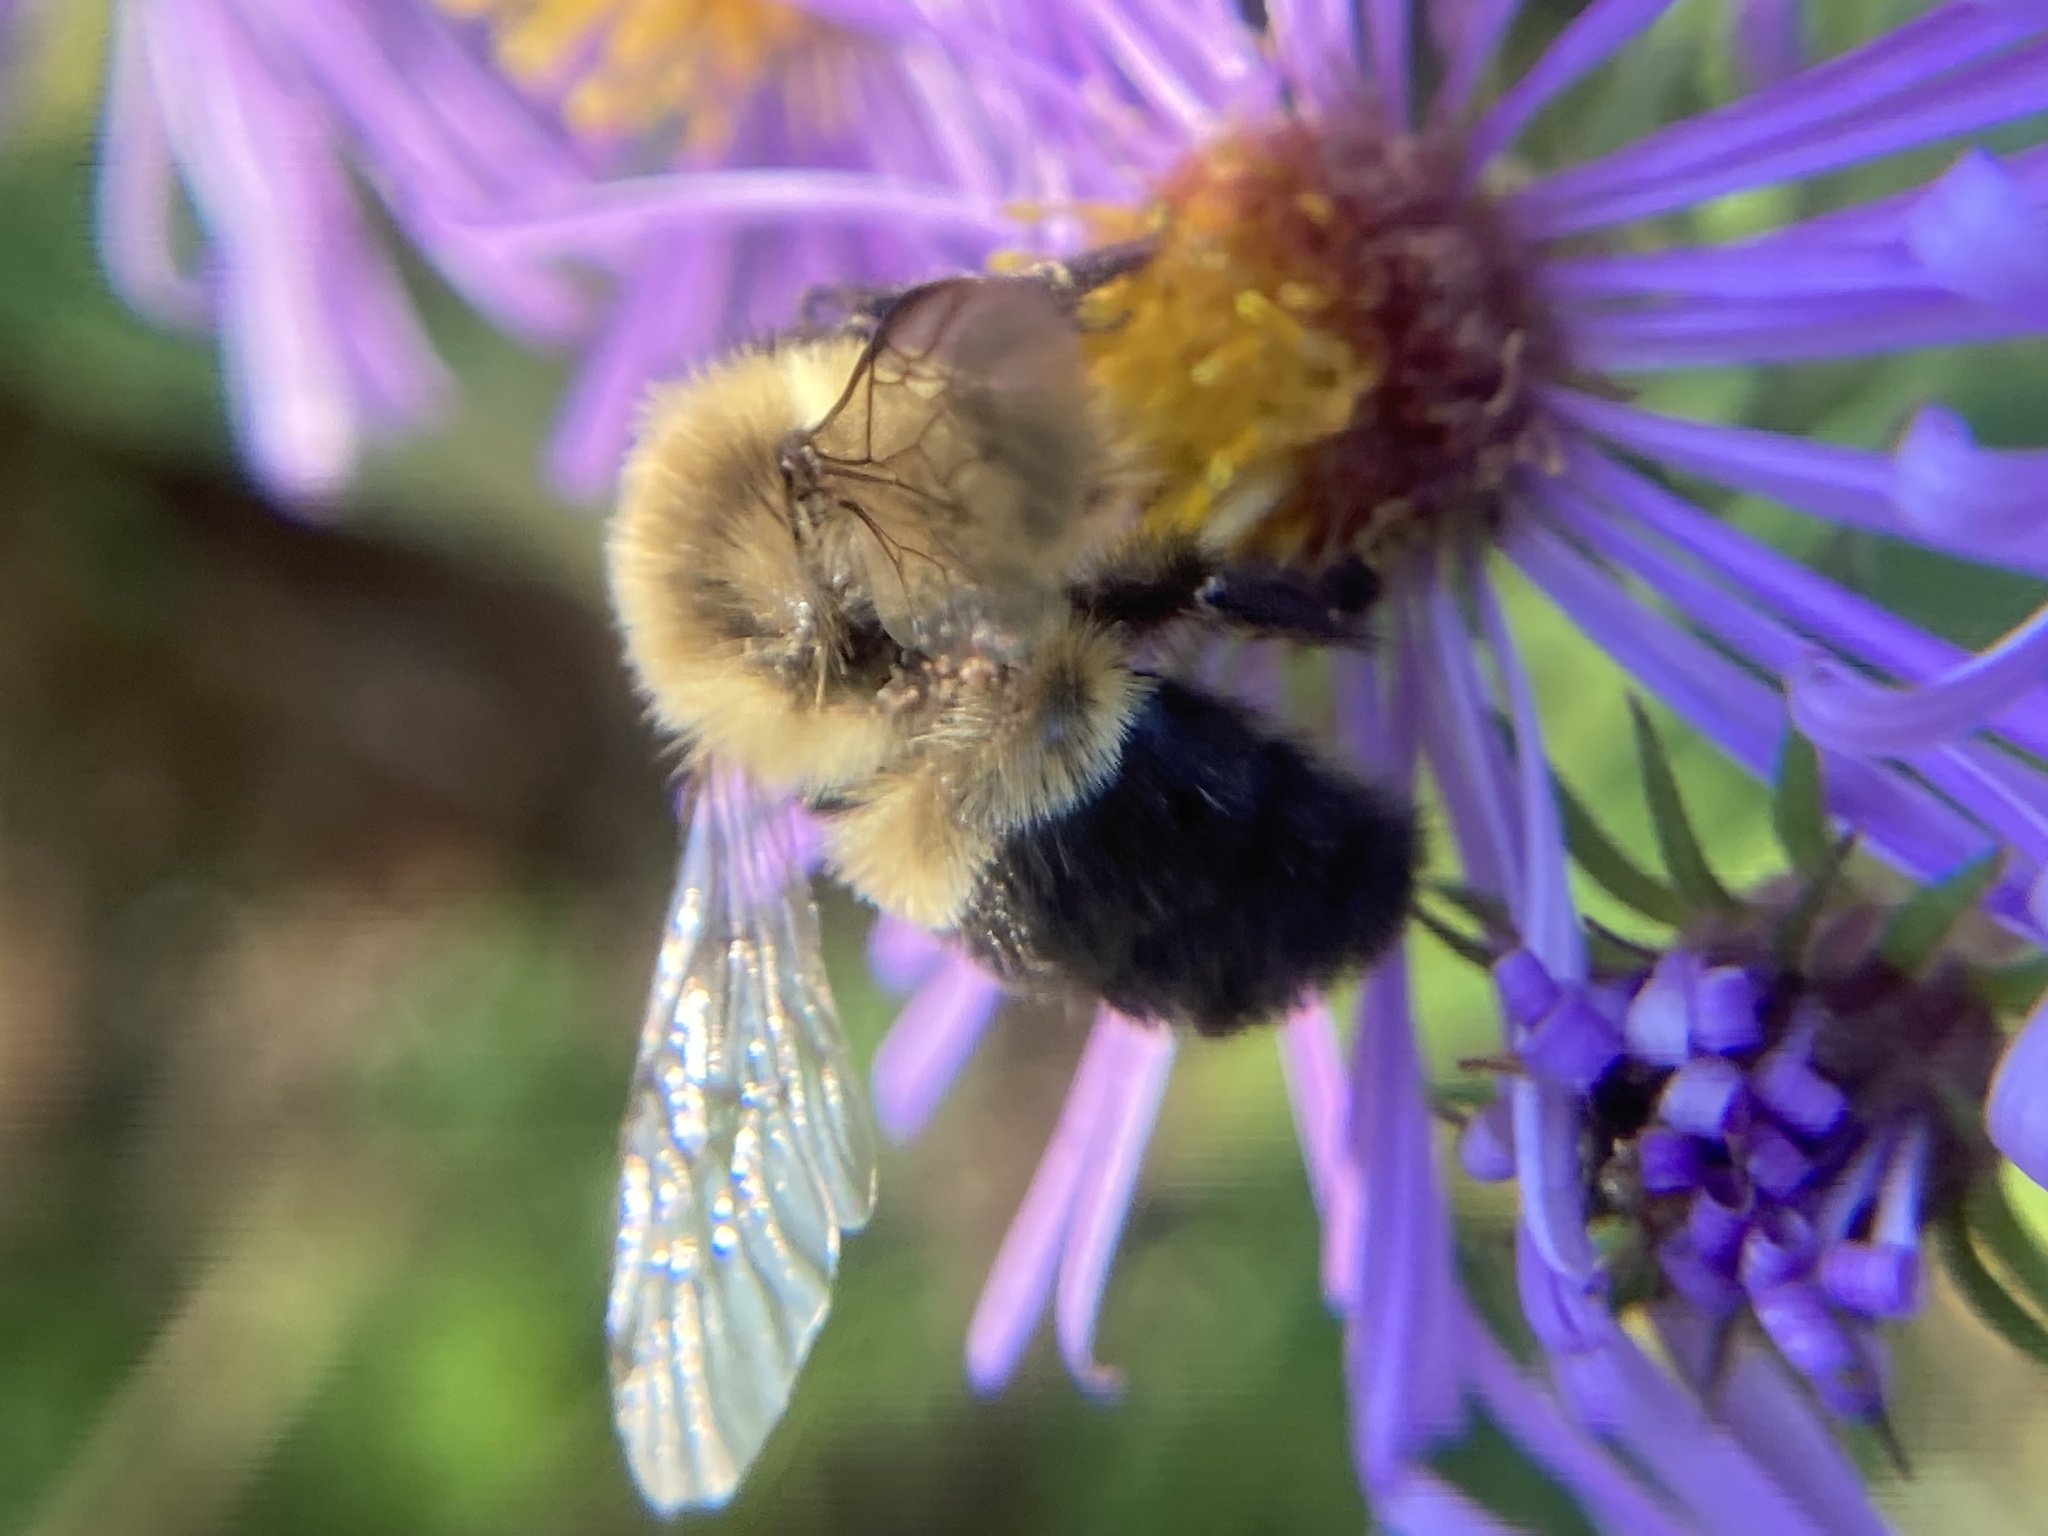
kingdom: Animalia
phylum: Arthropoda
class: Insecta
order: Hymenoptera
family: Apidae
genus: Bombus
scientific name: Bombus impatiens
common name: Common eastern bumble bee
